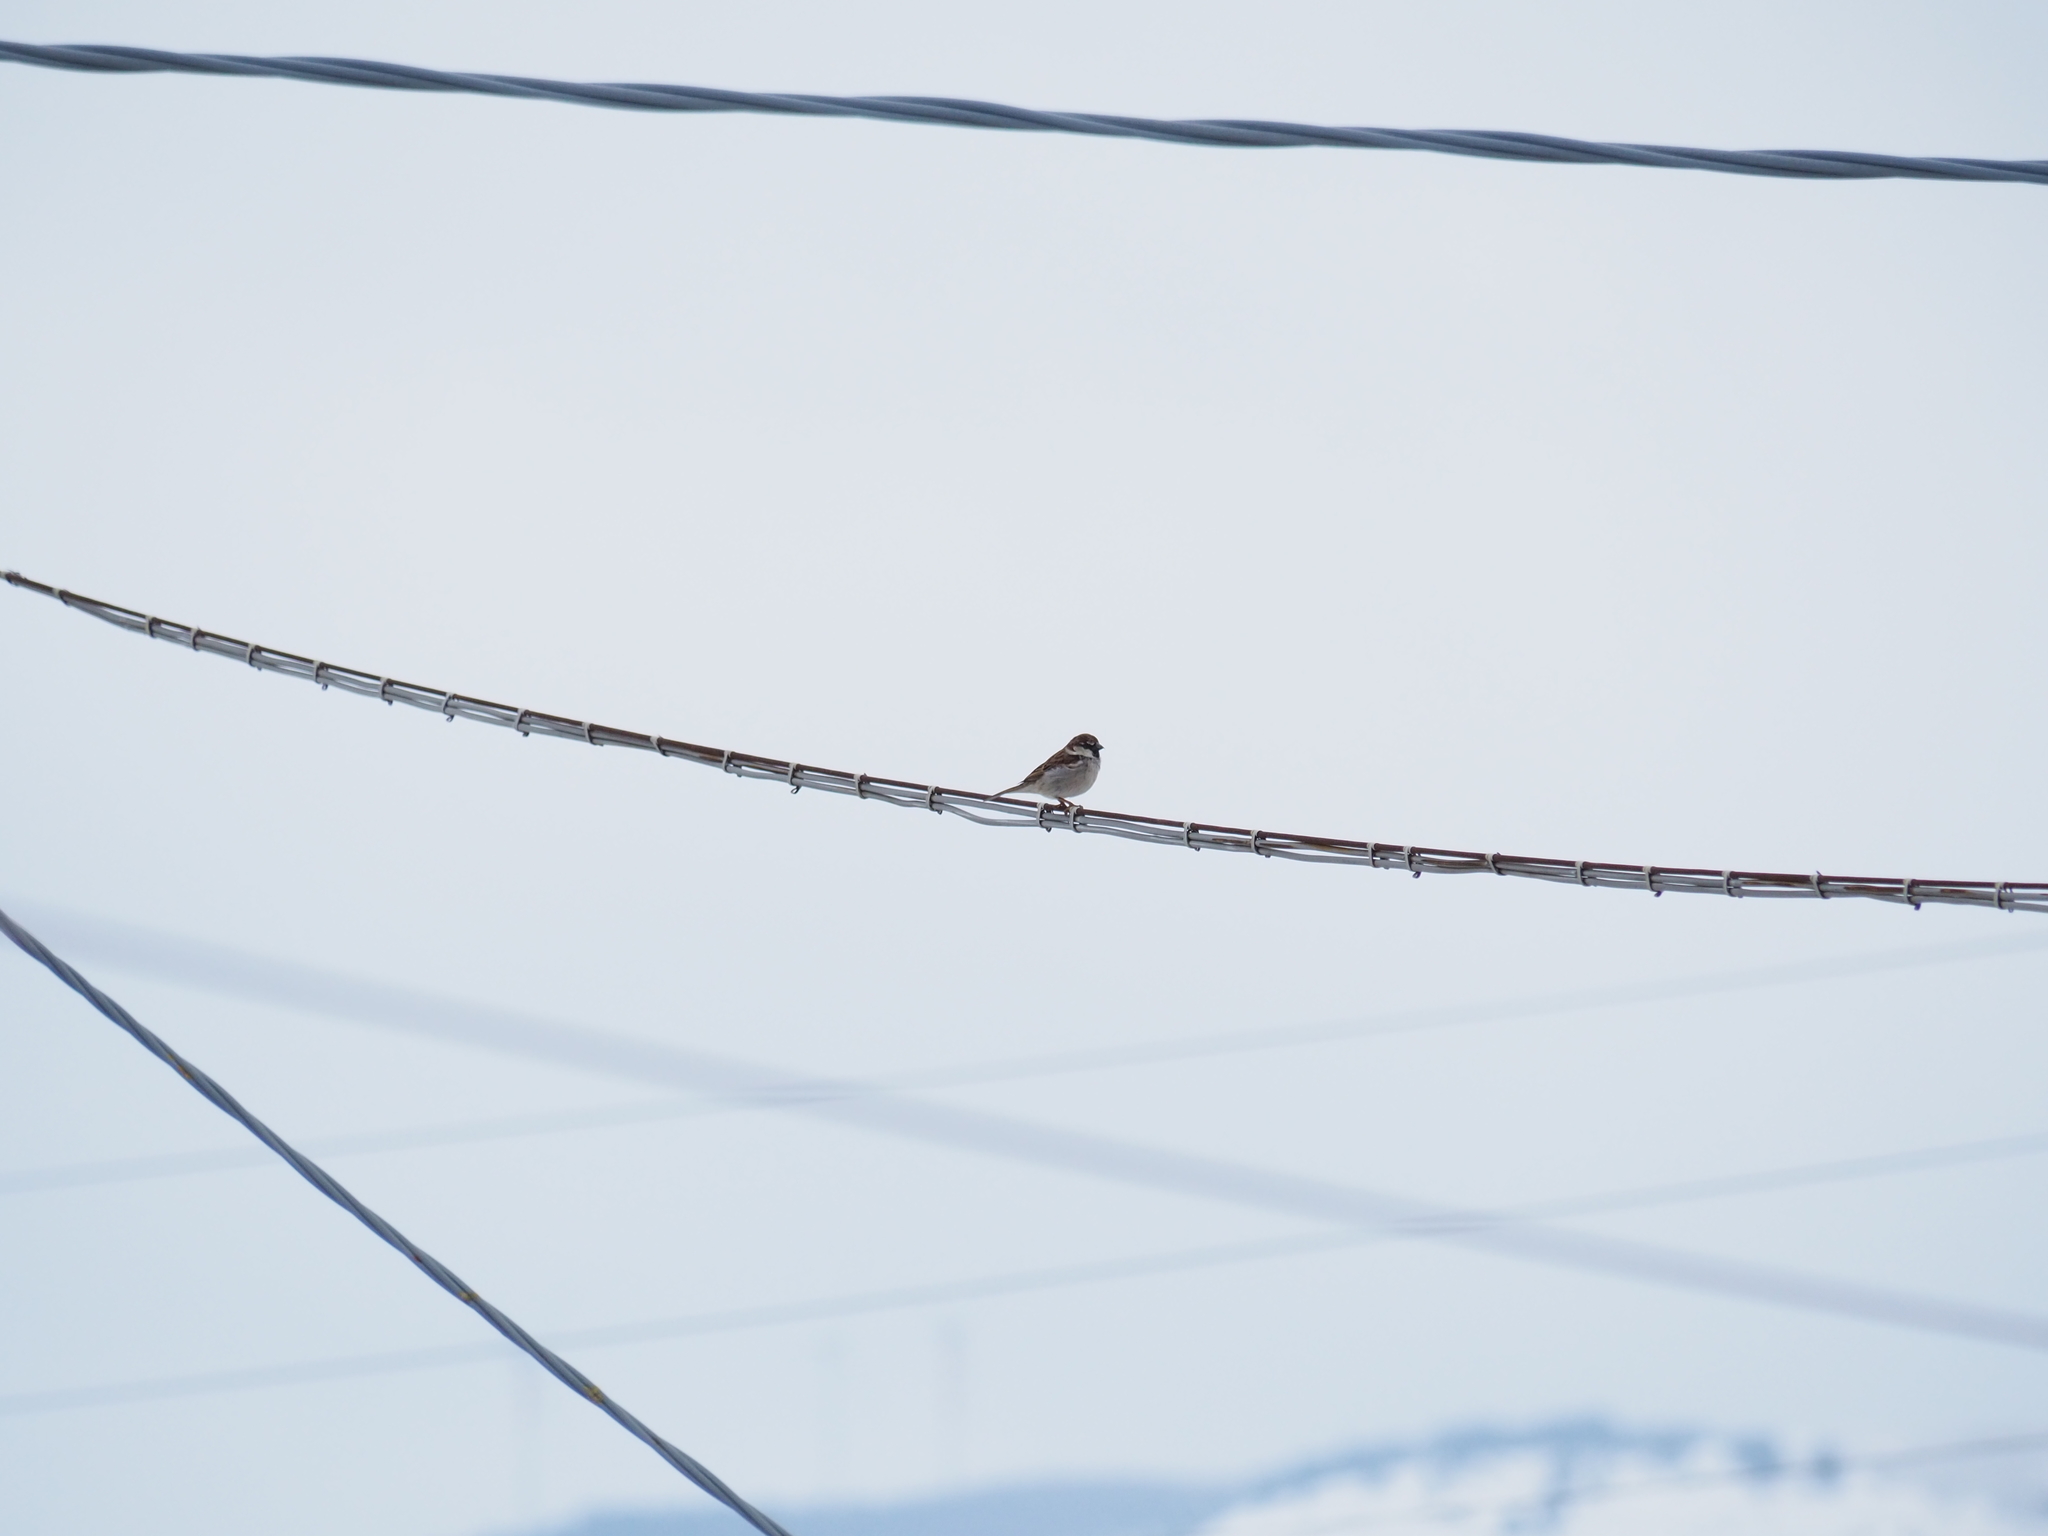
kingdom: Animalia
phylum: Chordata
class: Aves
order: Passeriformes
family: Passeridae
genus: Passer
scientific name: Passer italiae
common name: Italian sparrow
